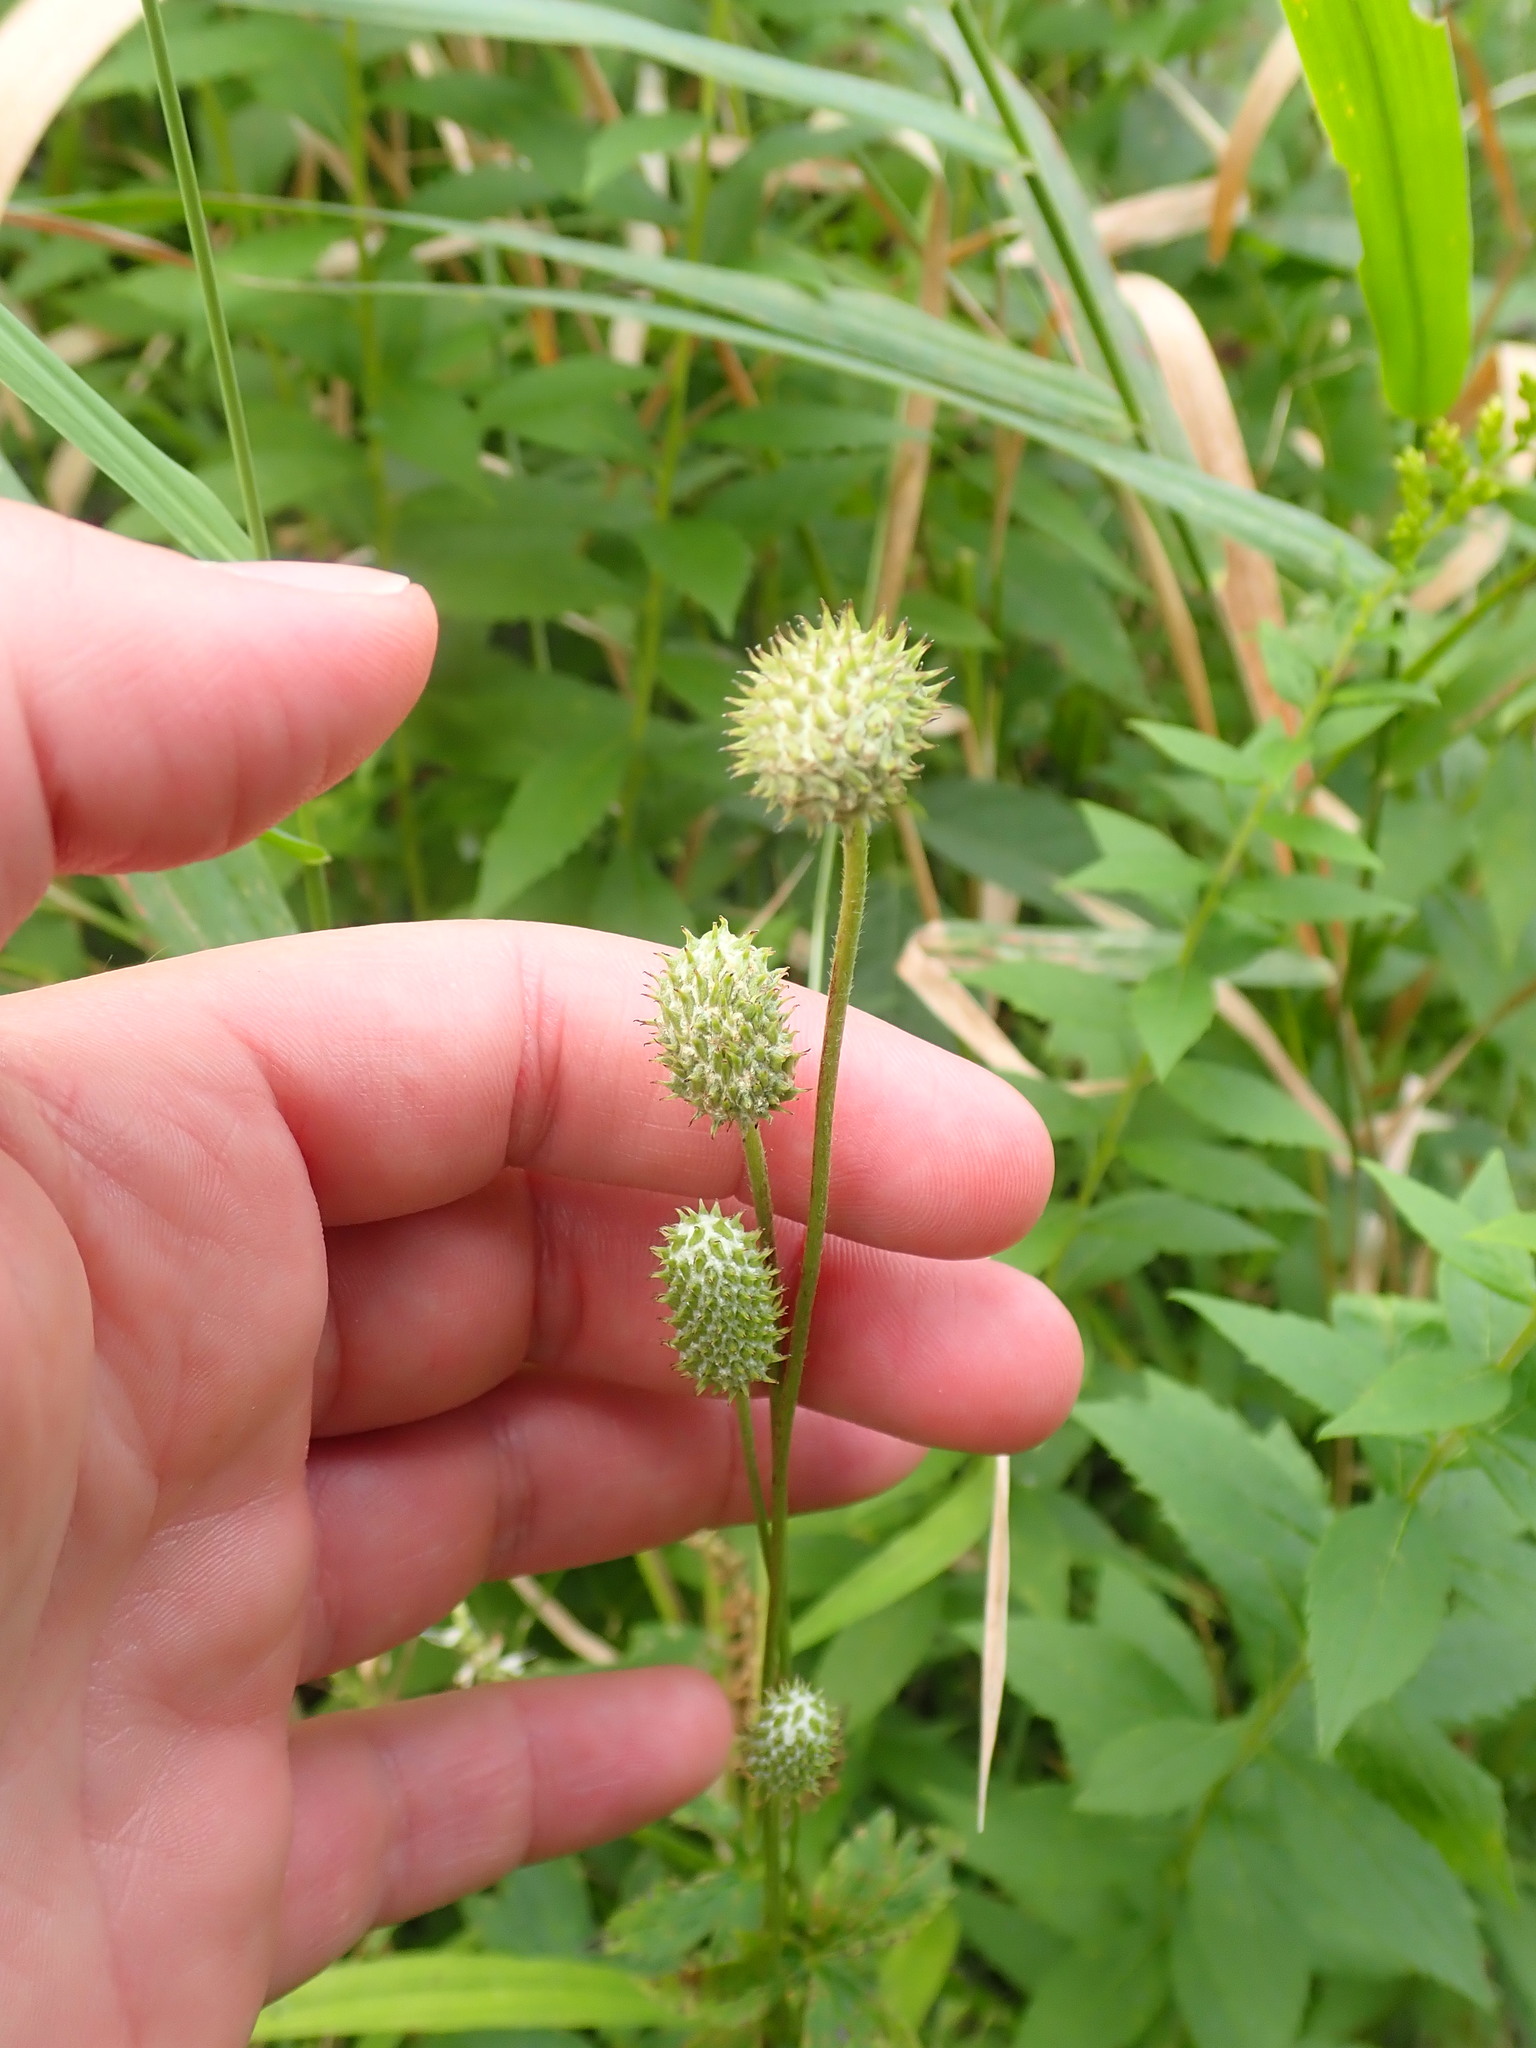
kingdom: Plantae
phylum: Tracheophyta
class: Magnoliopsida
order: Ranunculales
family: Ranunculaceae
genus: Anemone
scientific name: Anemone virginiana
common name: Tall anemone
